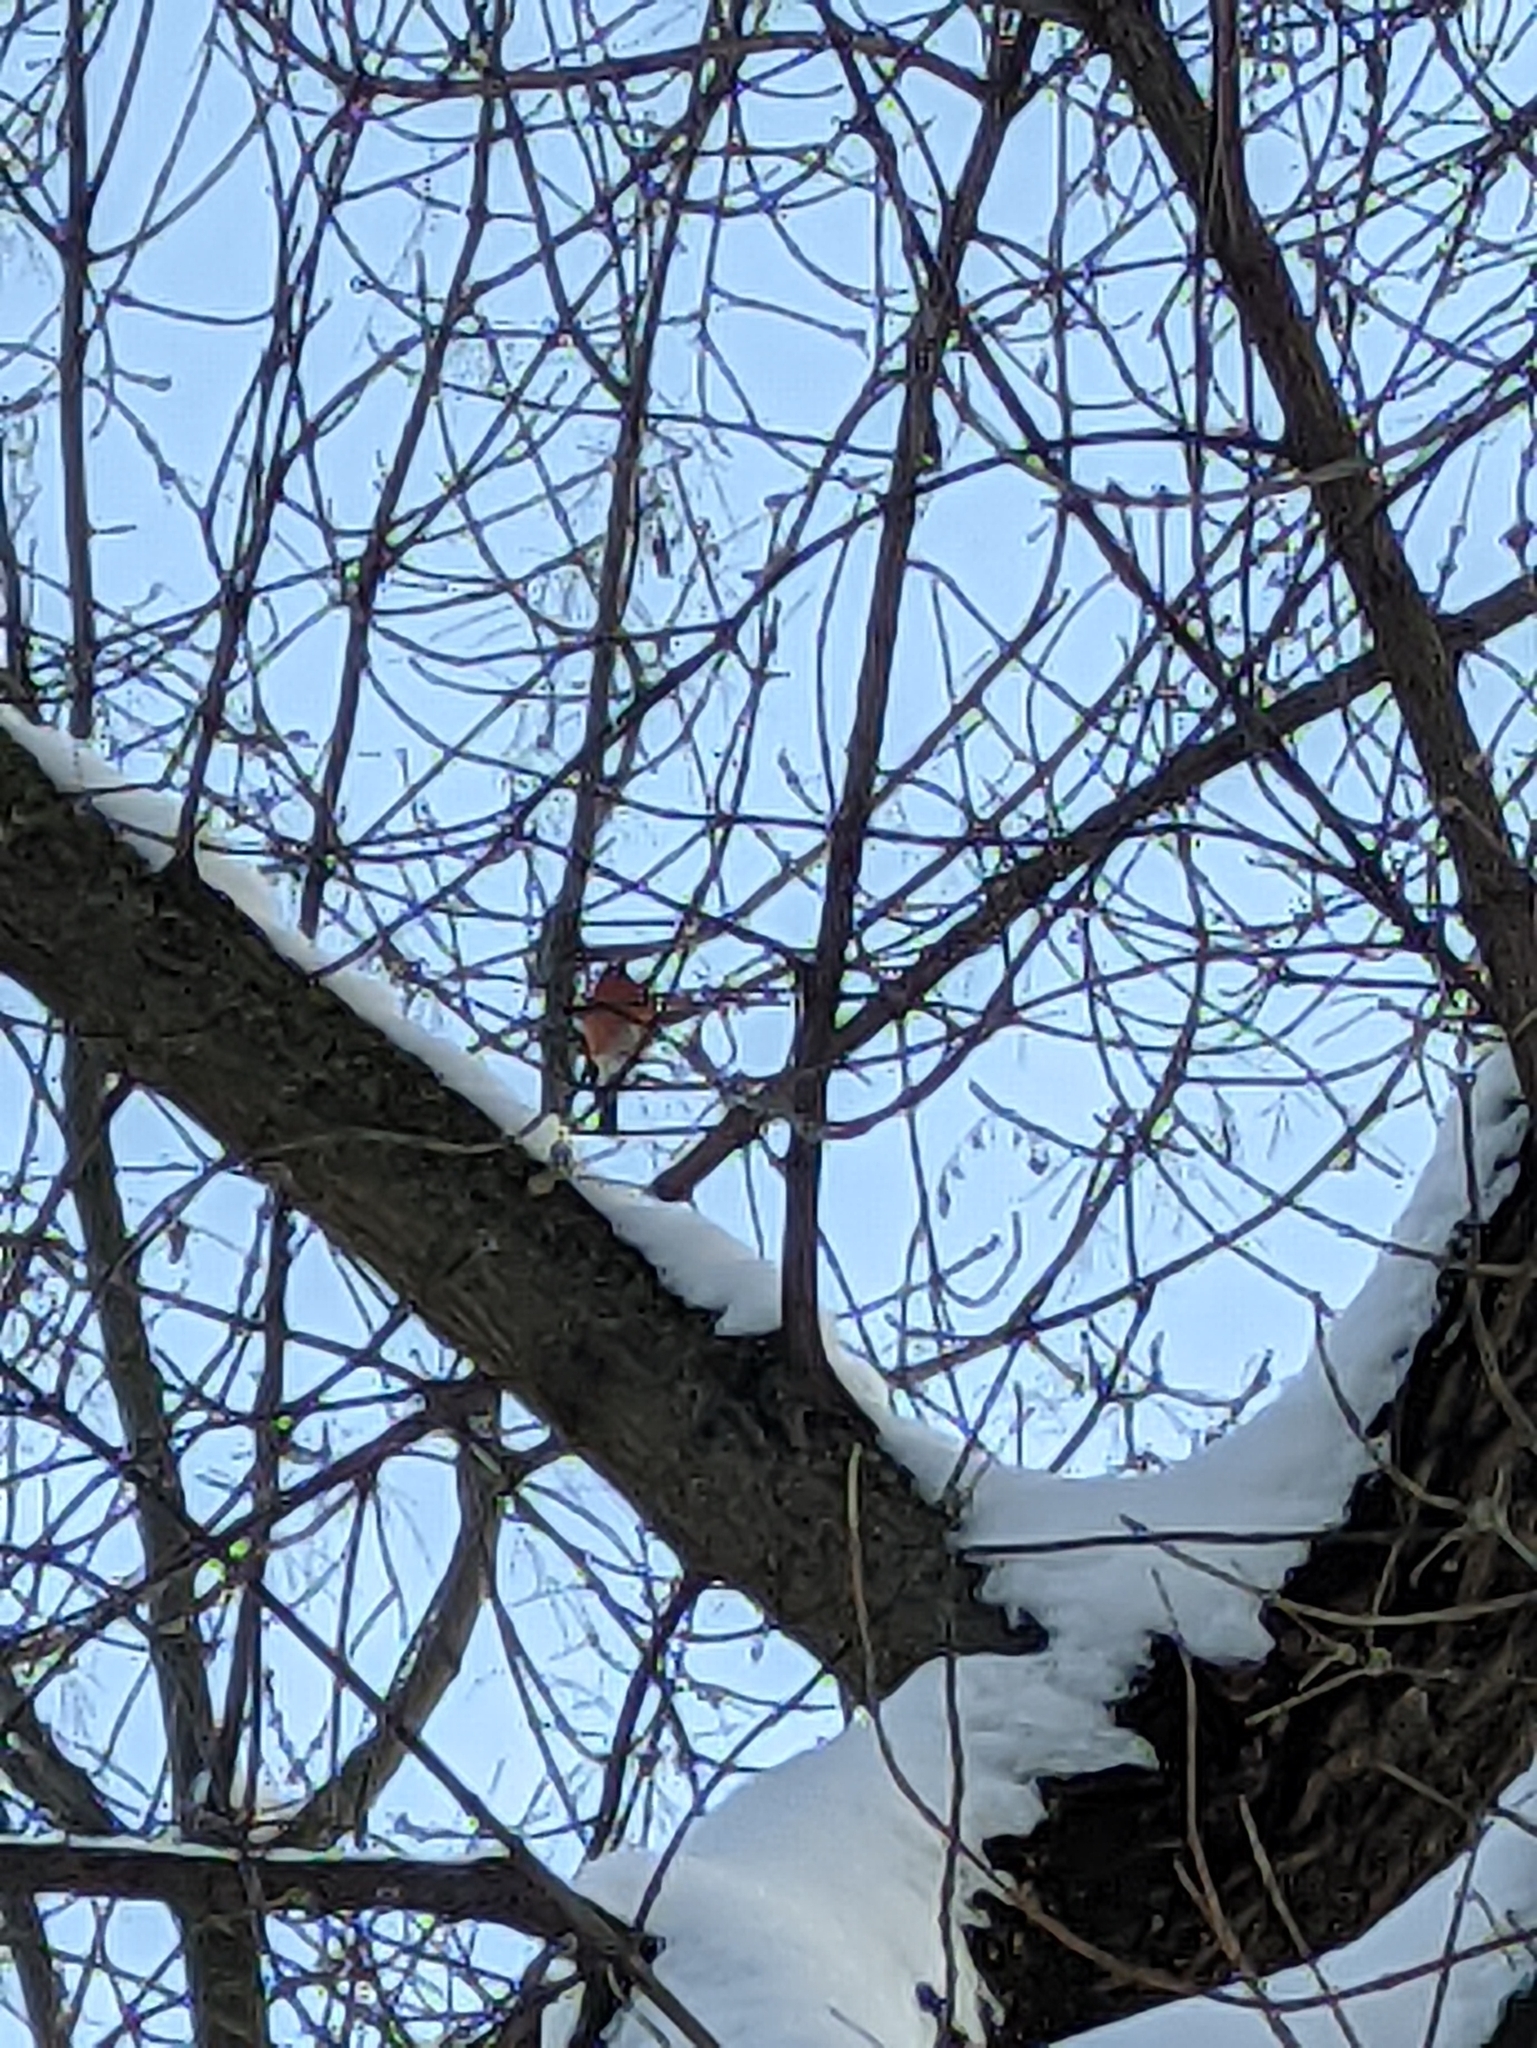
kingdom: Animalia
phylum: Chordata
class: Aves
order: Passeriformes
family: Fringillidae
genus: Pyrrhula
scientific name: Pyrrhula pyrrhula
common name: Eurasian bullfinch
